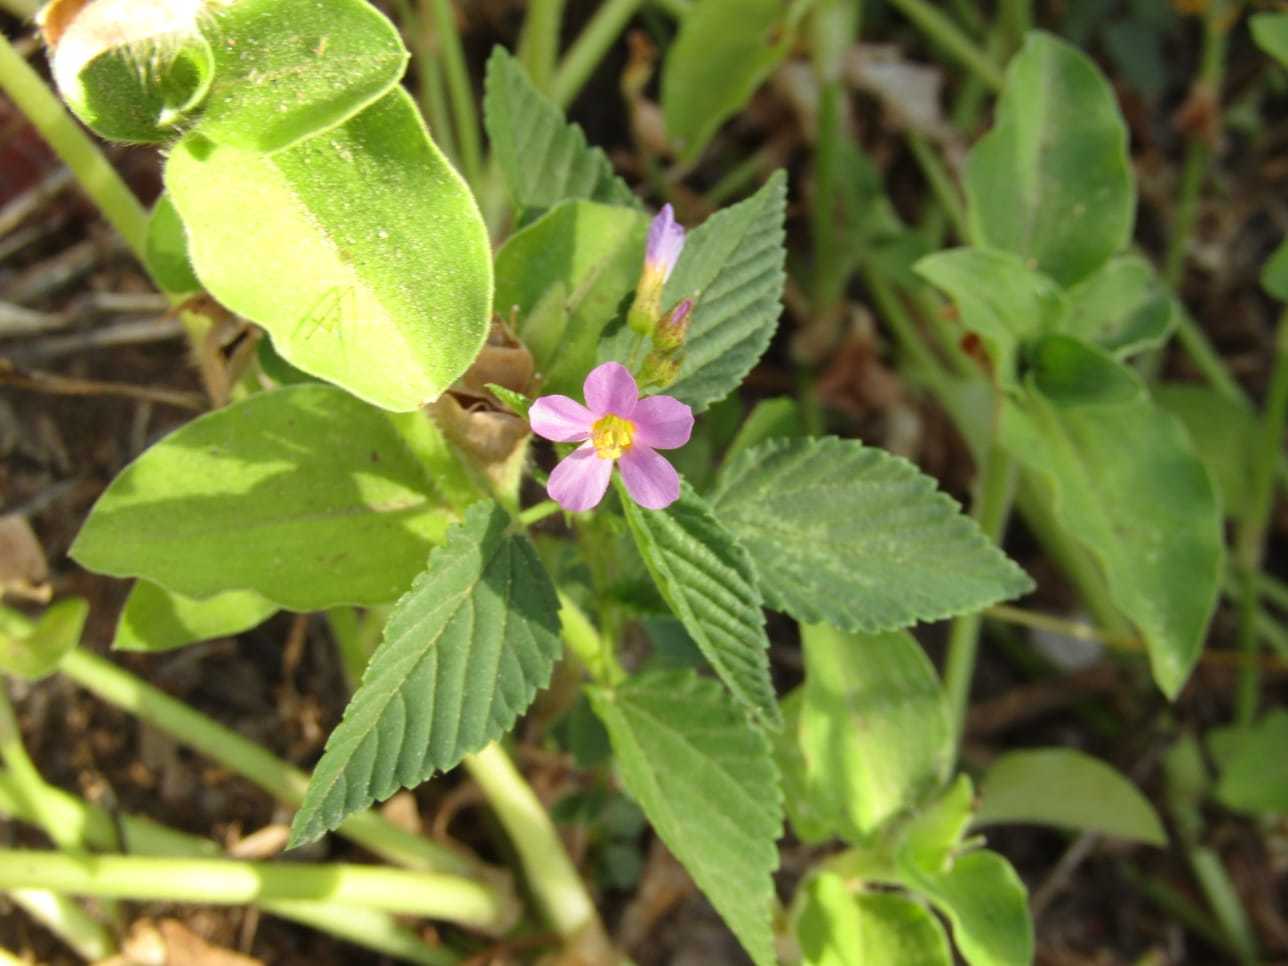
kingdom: Plantae
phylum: Tracheophyta
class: Magnoliopsida
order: Malvales
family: Malvaceae
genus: Melochia
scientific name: Melochia pyramidata
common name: Pyramidflower
